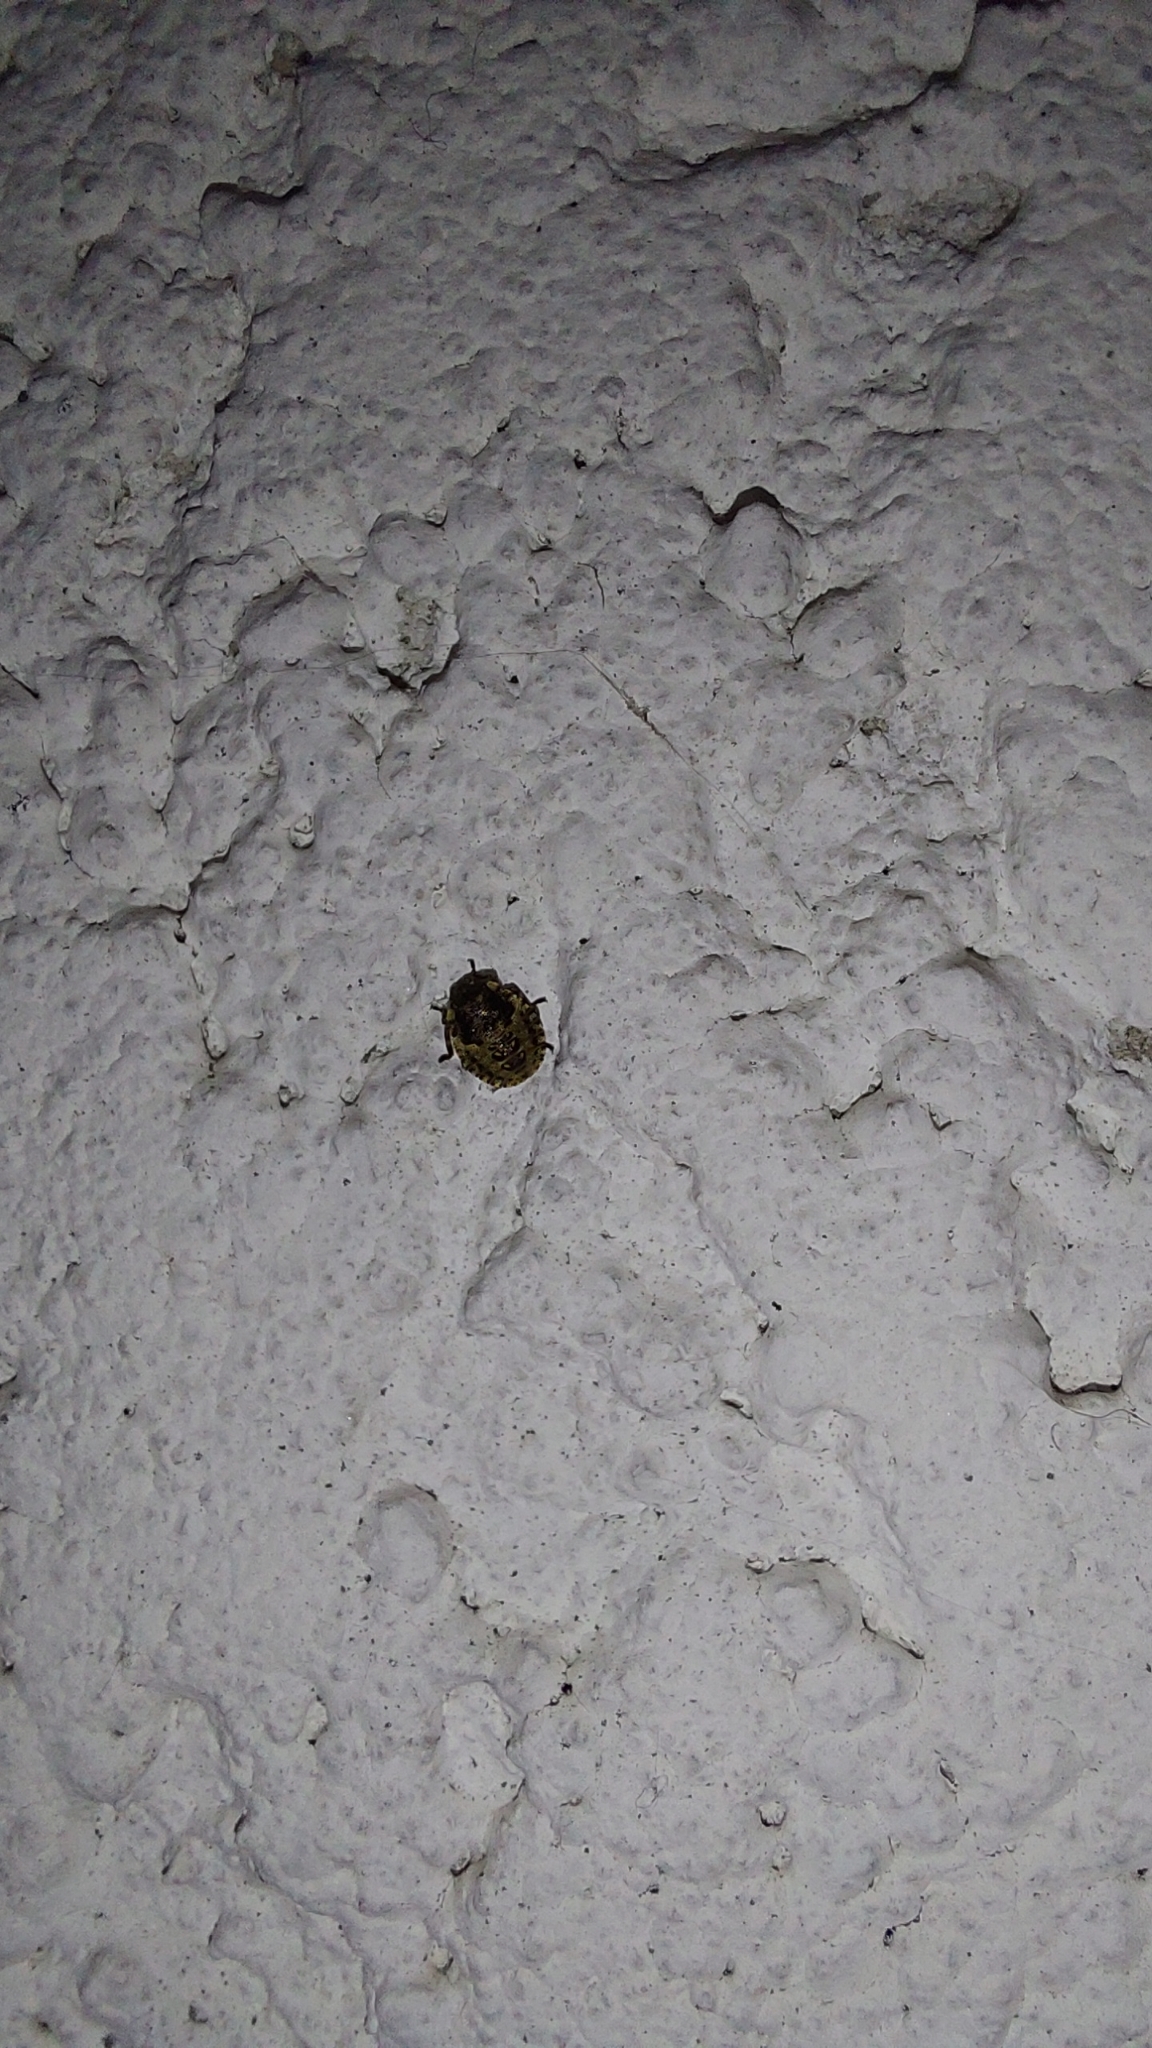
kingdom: Animalia
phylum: Arthropoda
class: Insecta
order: Hemiptera
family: Pentatomidae
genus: Pentatoma
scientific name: Pentatoma rufipes
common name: Forest bug
